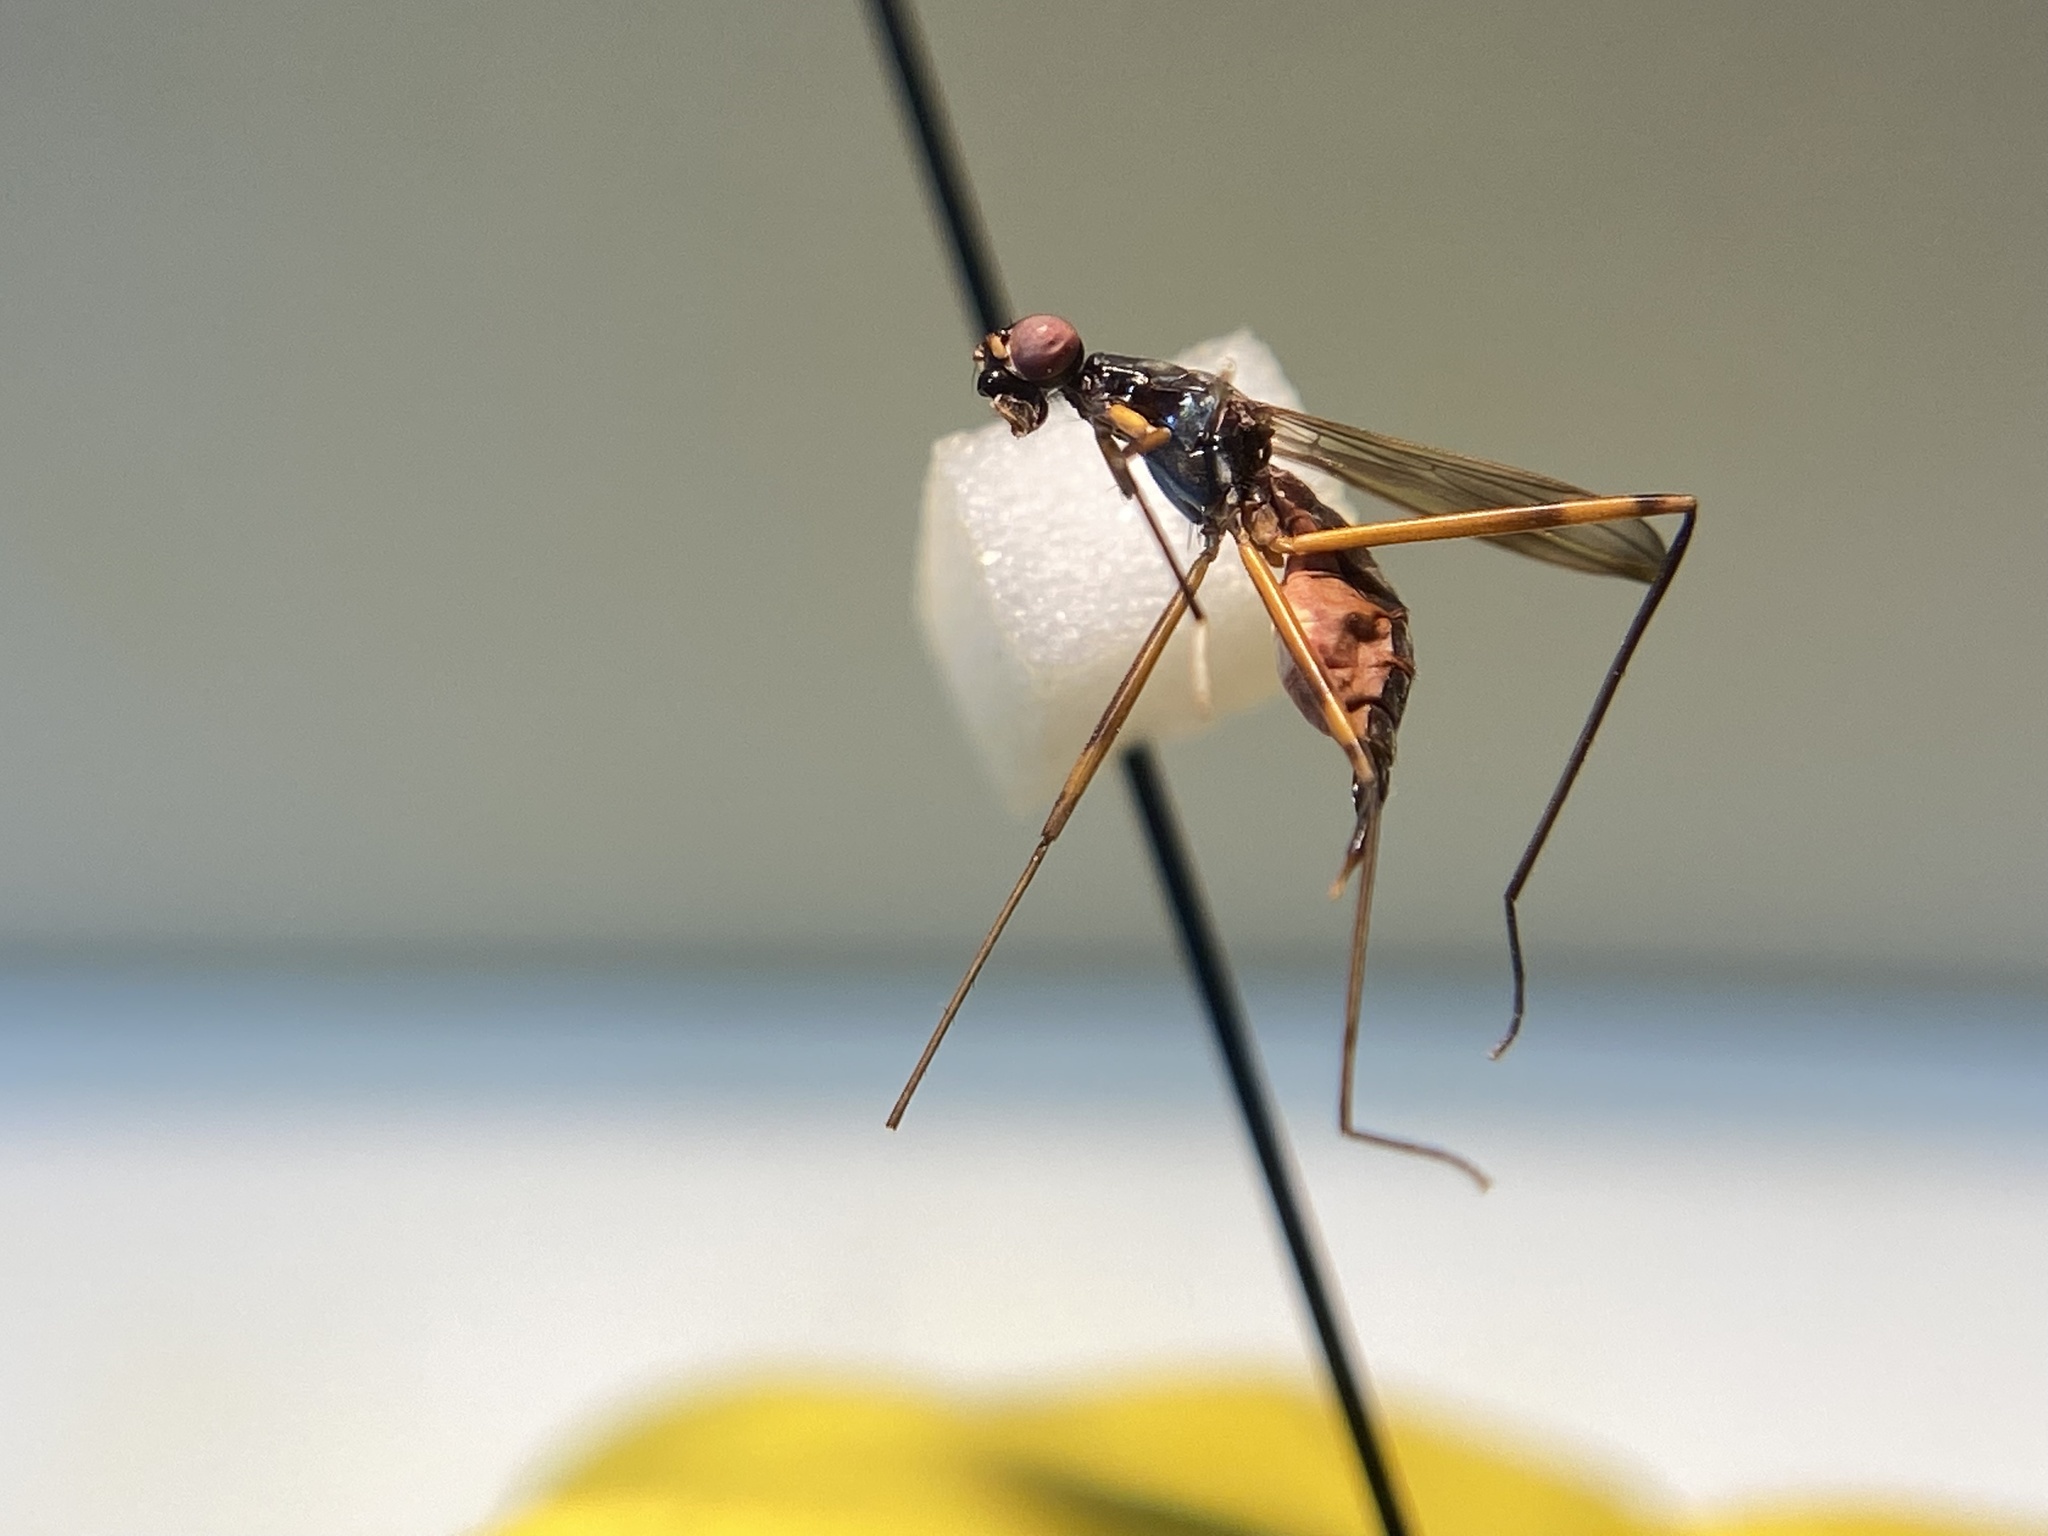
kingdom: Animalia
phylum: Arthropoda
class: Insecta
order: Diptera
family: Micropezidae
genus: Rainieria
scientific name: Rainieria antennaepes
